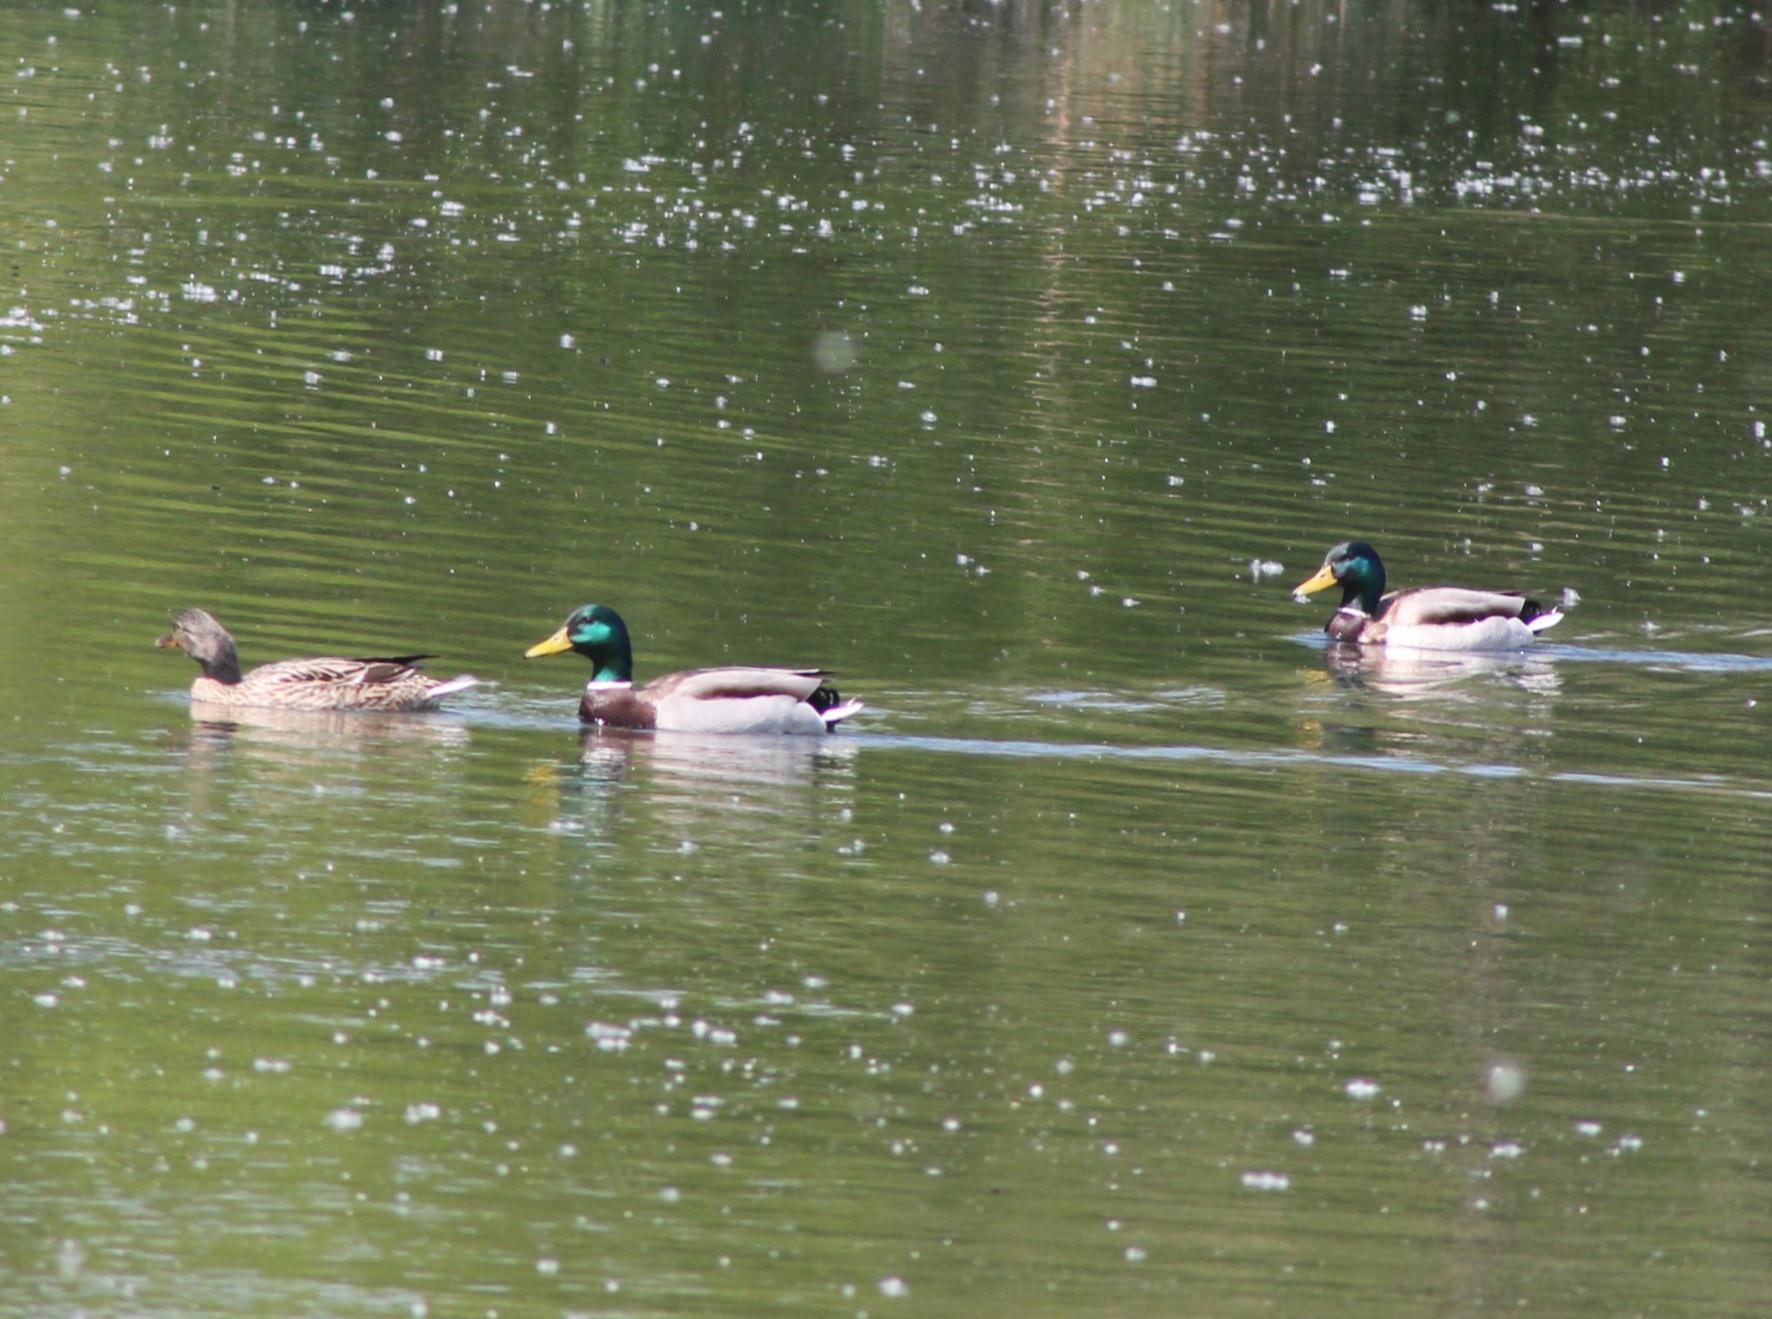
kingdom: Animalia
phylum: Chordata
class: Aves
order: Anseriformes
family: Anatidae
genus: Anas
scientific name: Anas platyrhynchos
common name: Mallard
